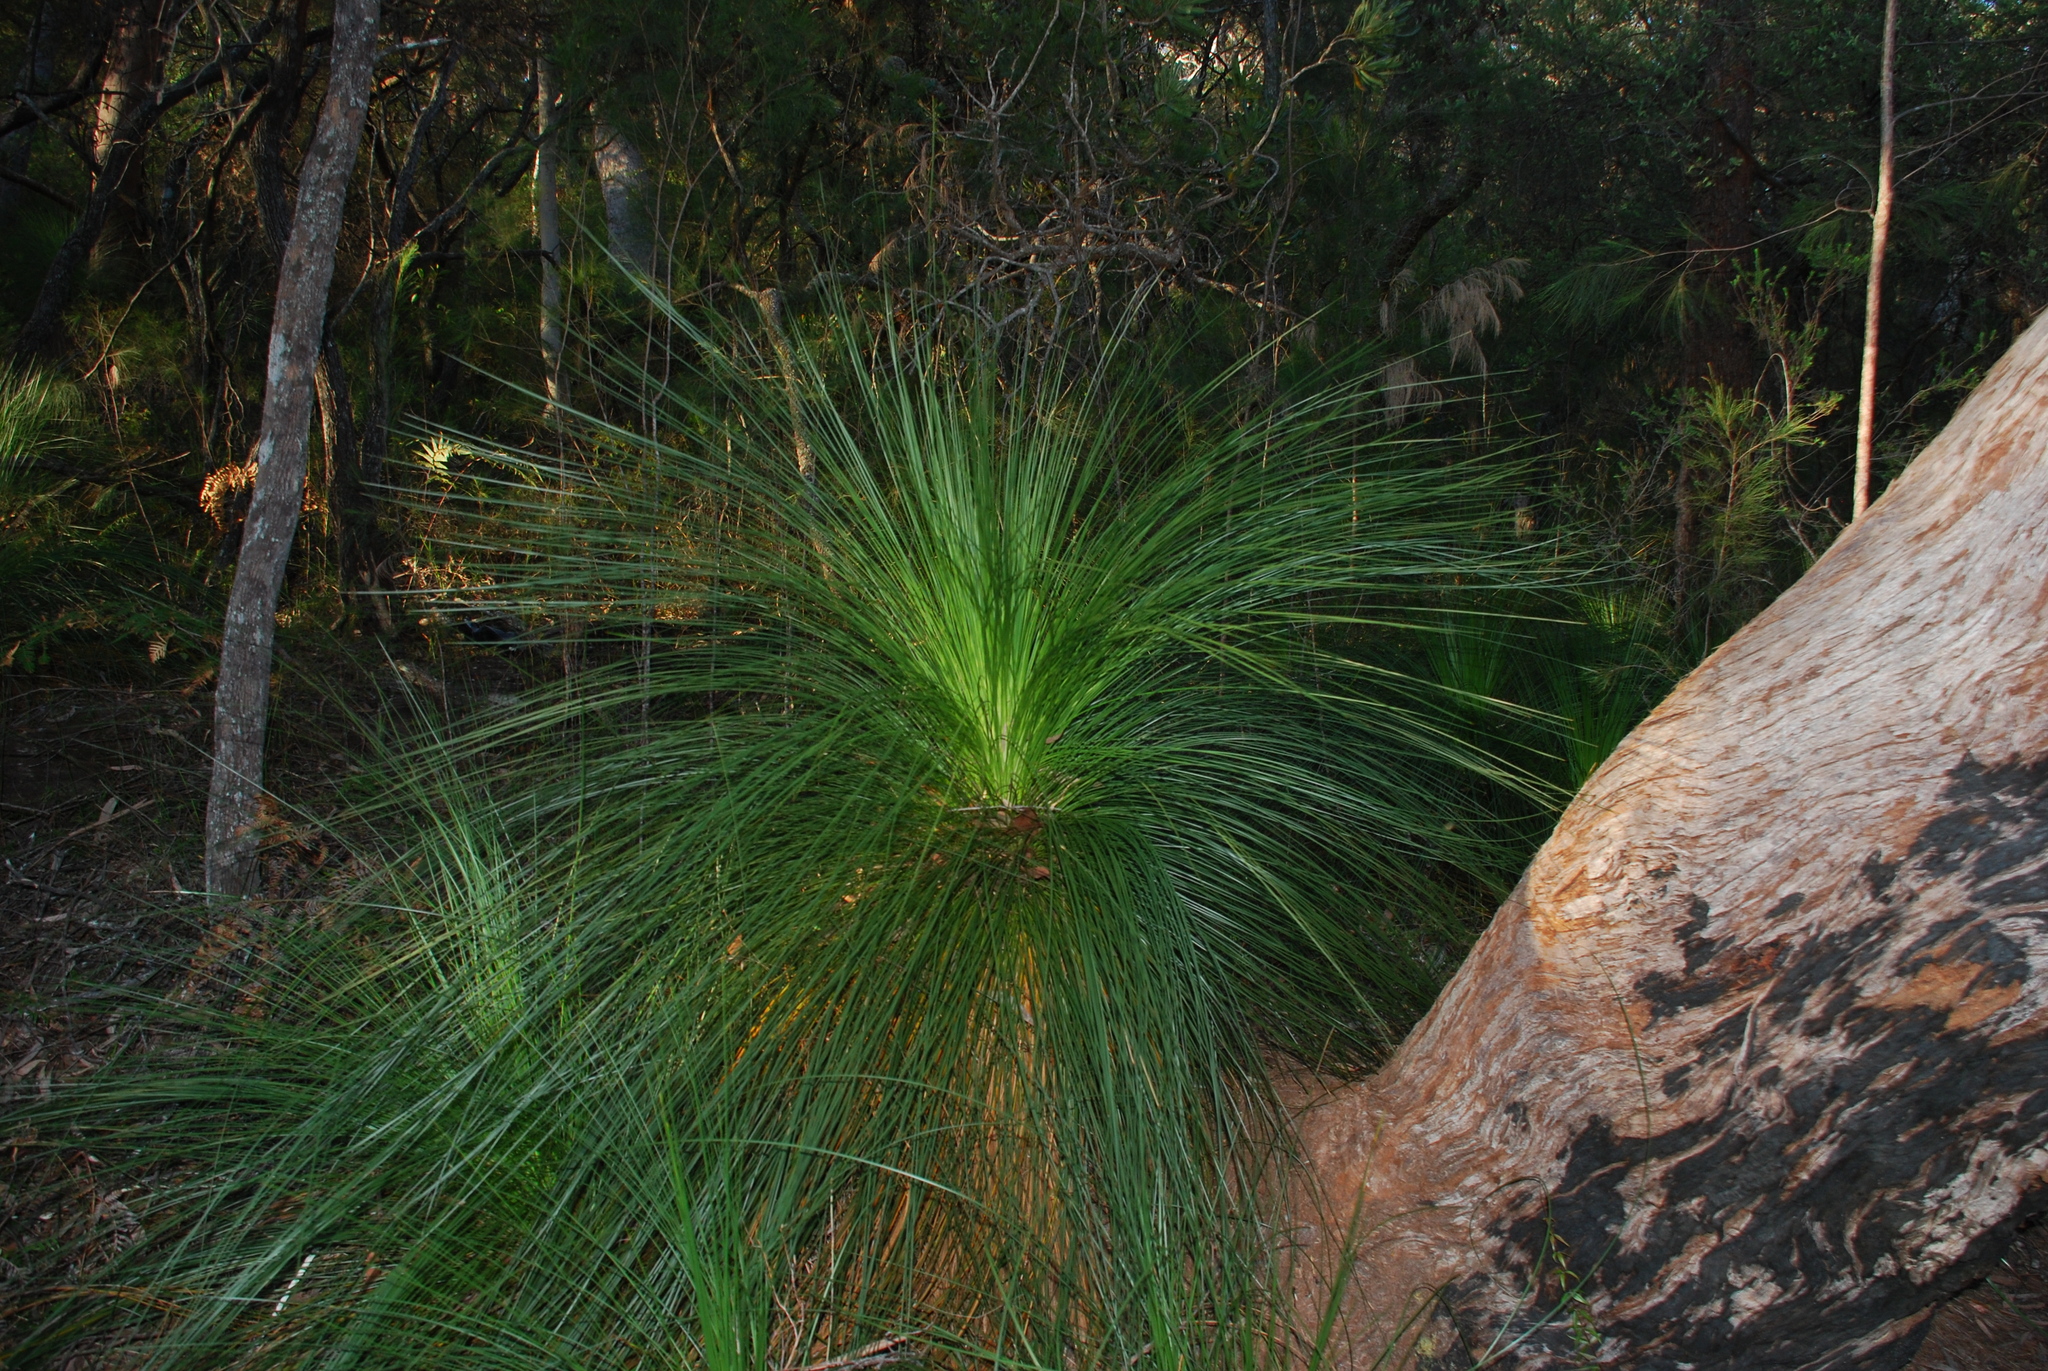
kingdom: Plantae
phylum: Tracheophyta
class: Liliopsida
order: Asparagales
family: Asphodelaceae
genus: Xanthorrhoea
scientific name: Xanthorrhoea johnsonii
